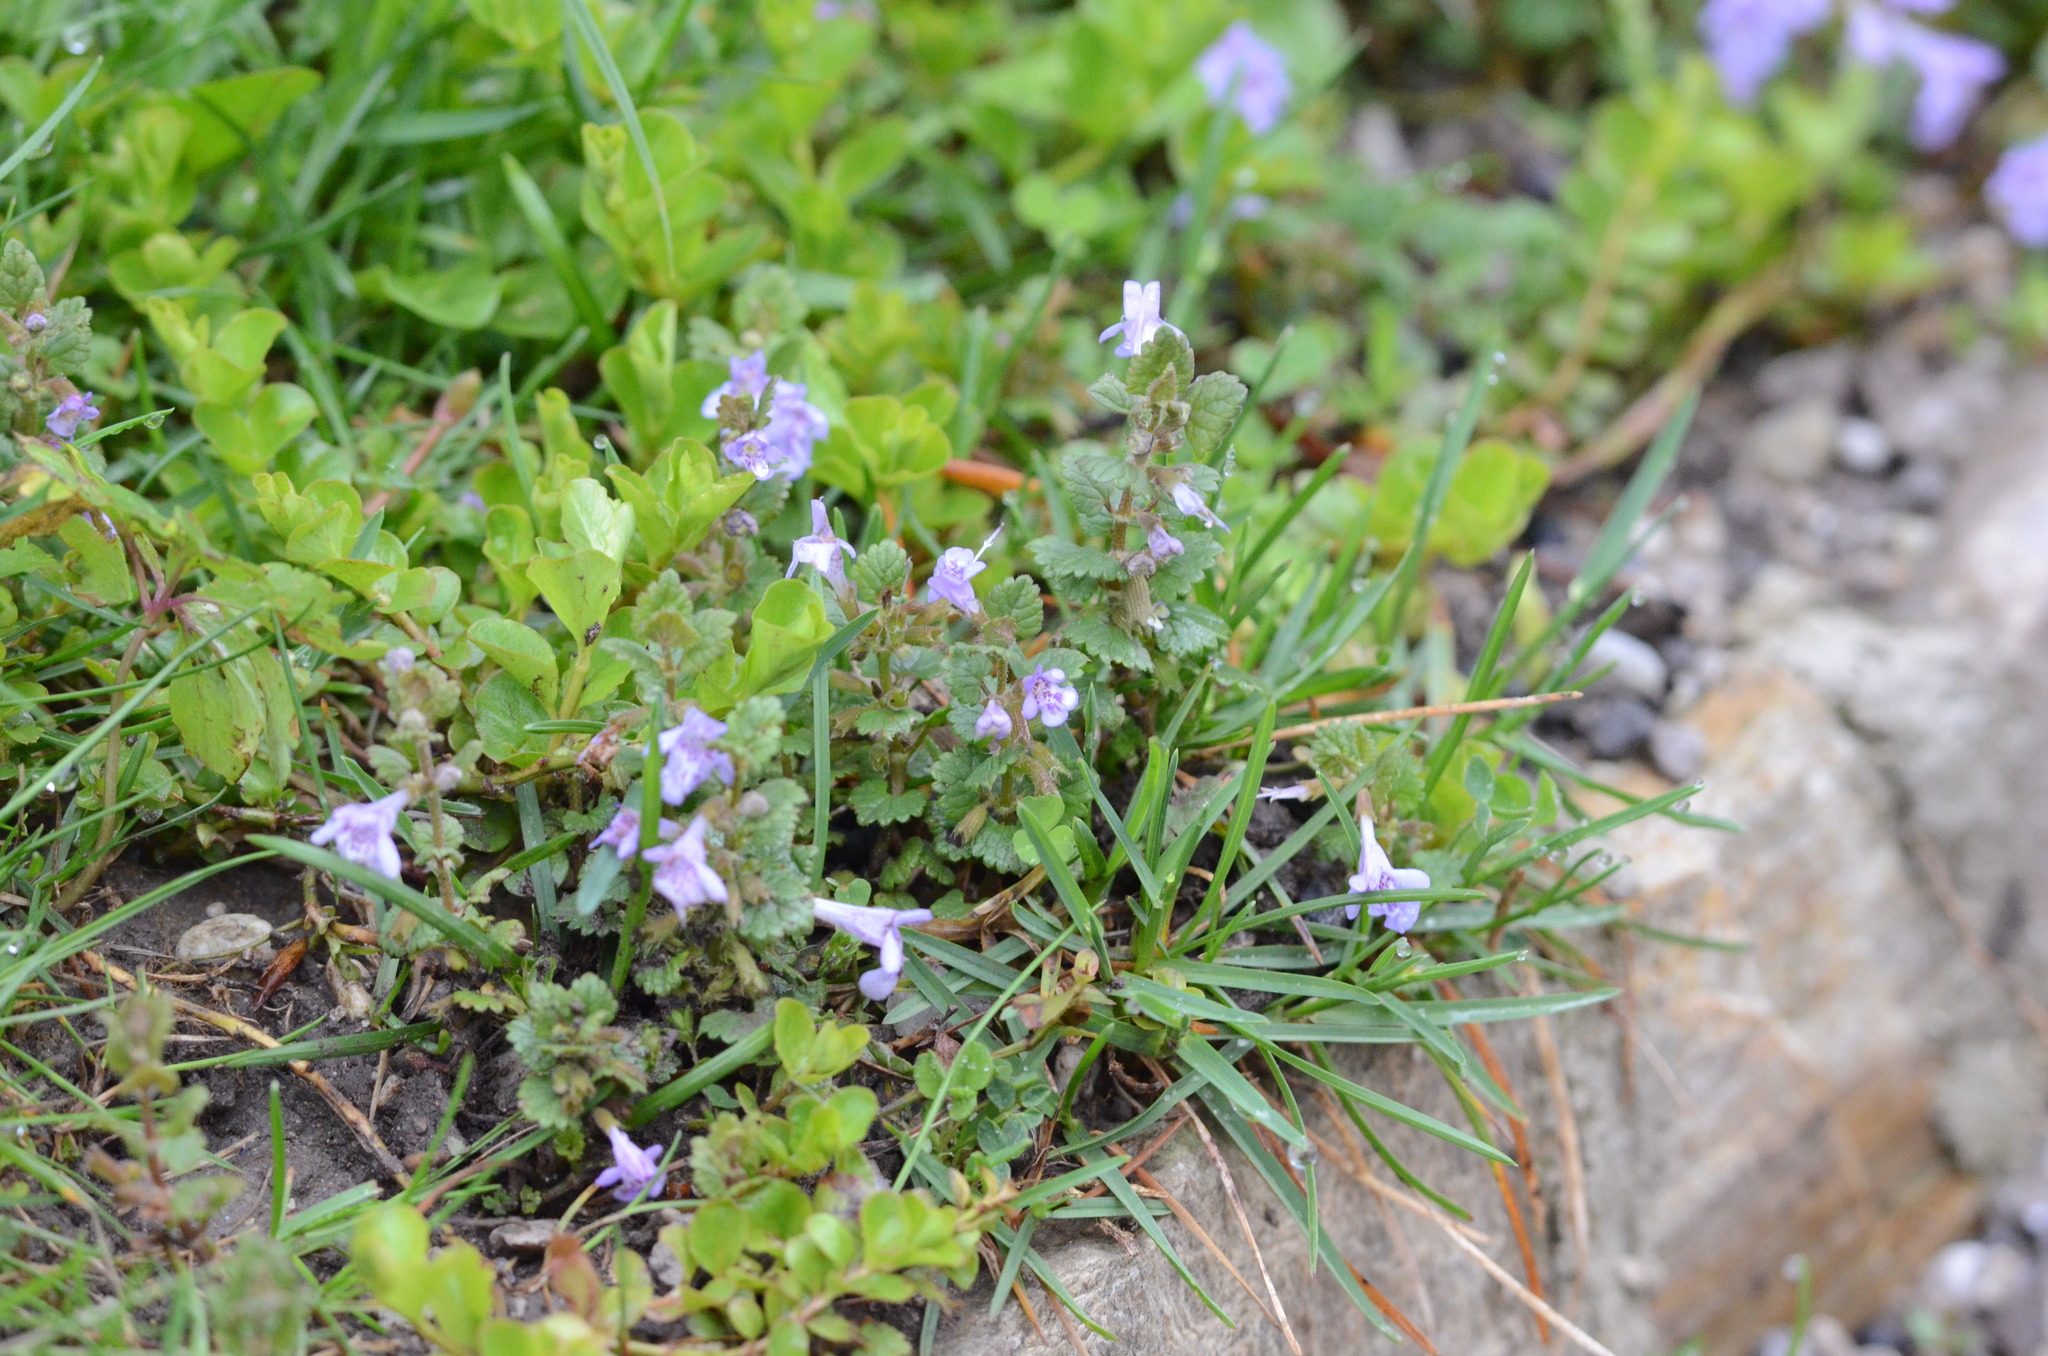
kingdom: Plantae
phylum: Tracheophyta
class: Magnoliopsida
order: Lamiales
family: Lamiaceae
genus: Glechoma
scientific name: Glechoma hederacea
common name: Ground ivy
